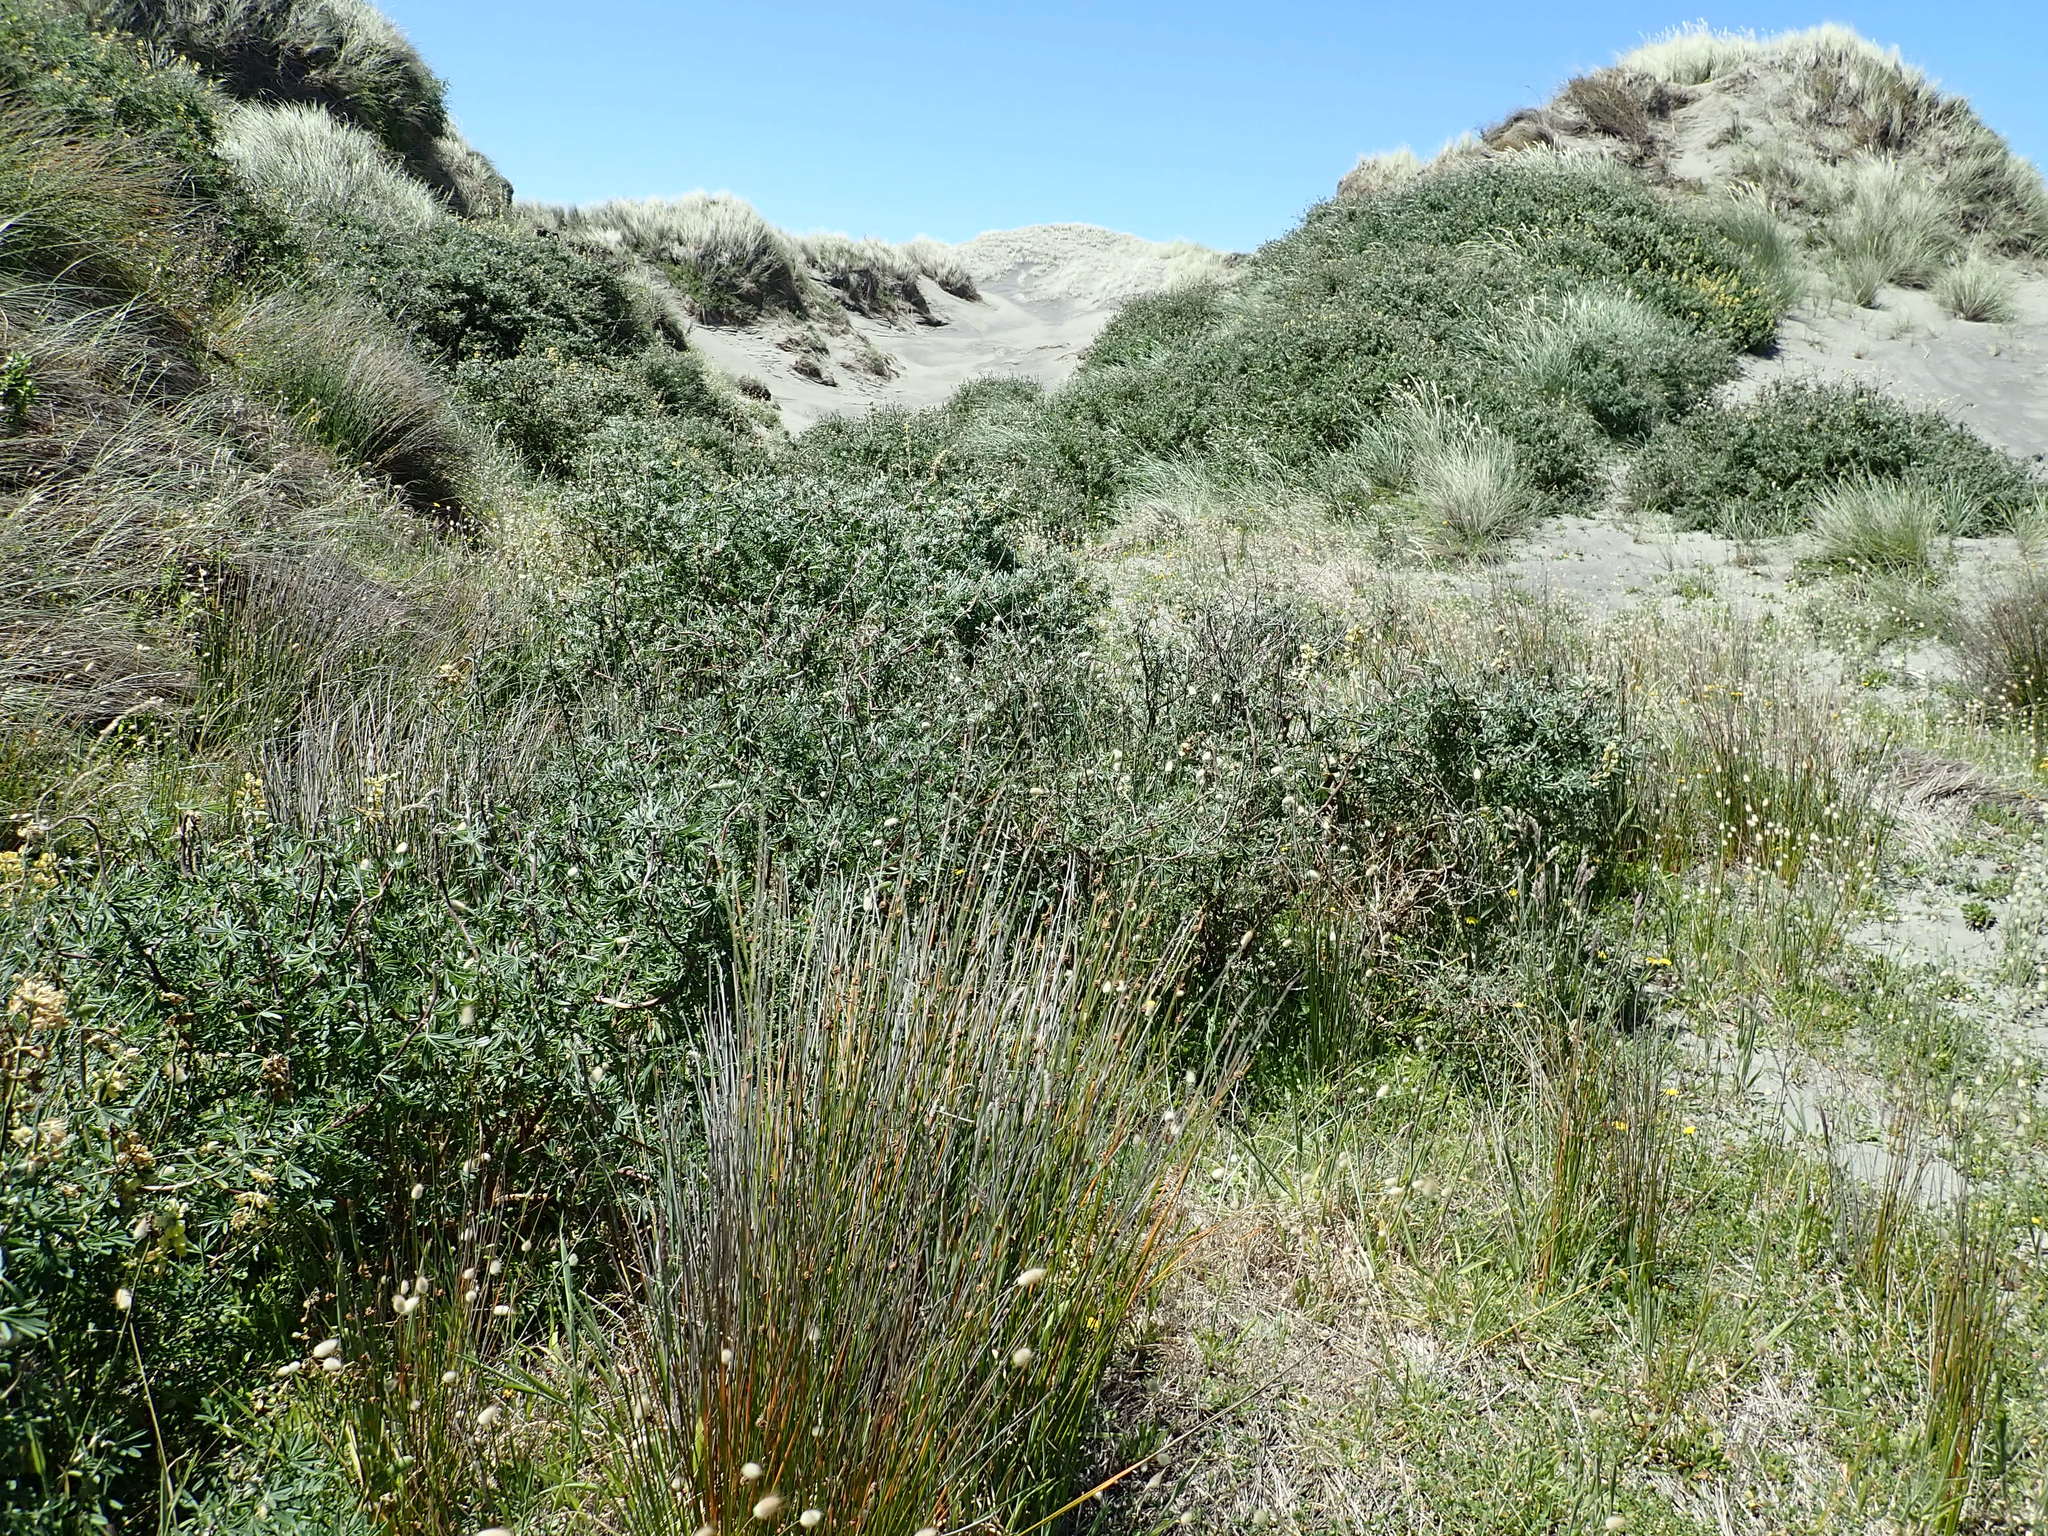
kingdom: Plantae
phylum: Tracheophyta
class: Magnoliopsida
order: Fabales
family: Fabaceae
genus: Lupinus
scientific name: Lupinus arboreus
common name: Yellow bush lupine
